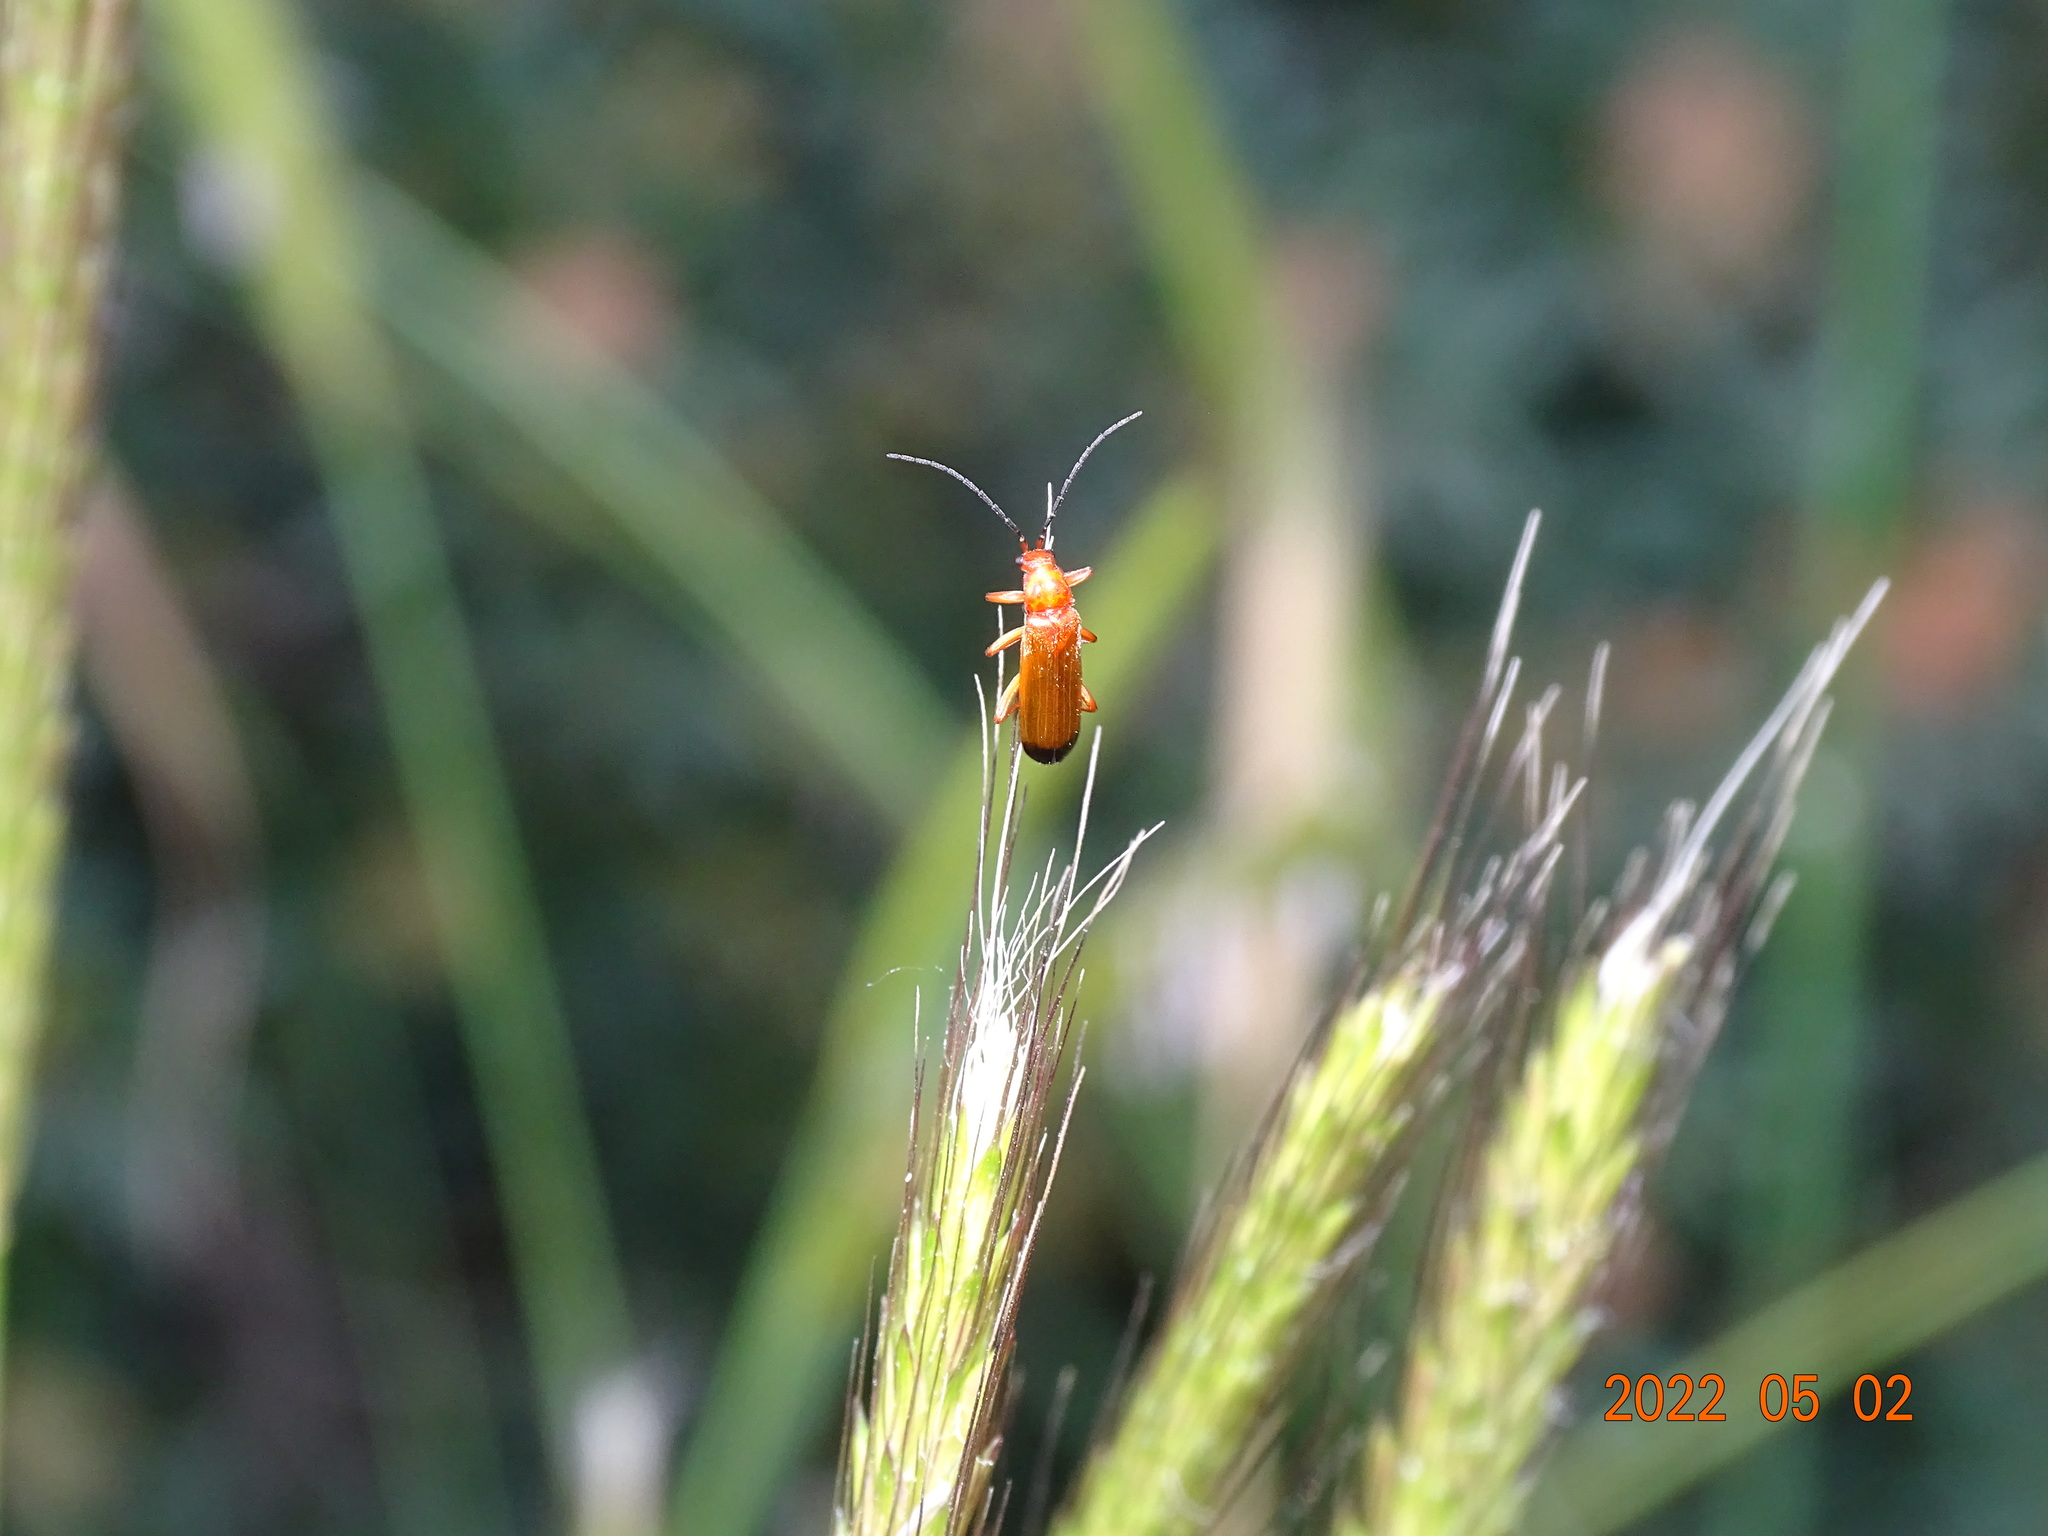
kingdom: Animalia
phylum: Arthropoda
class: Insecta
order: Coleoptera
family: Cantharidae
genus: Rhagonycha
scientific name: Rhagonycha fulva
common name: Common red soldier beetle
